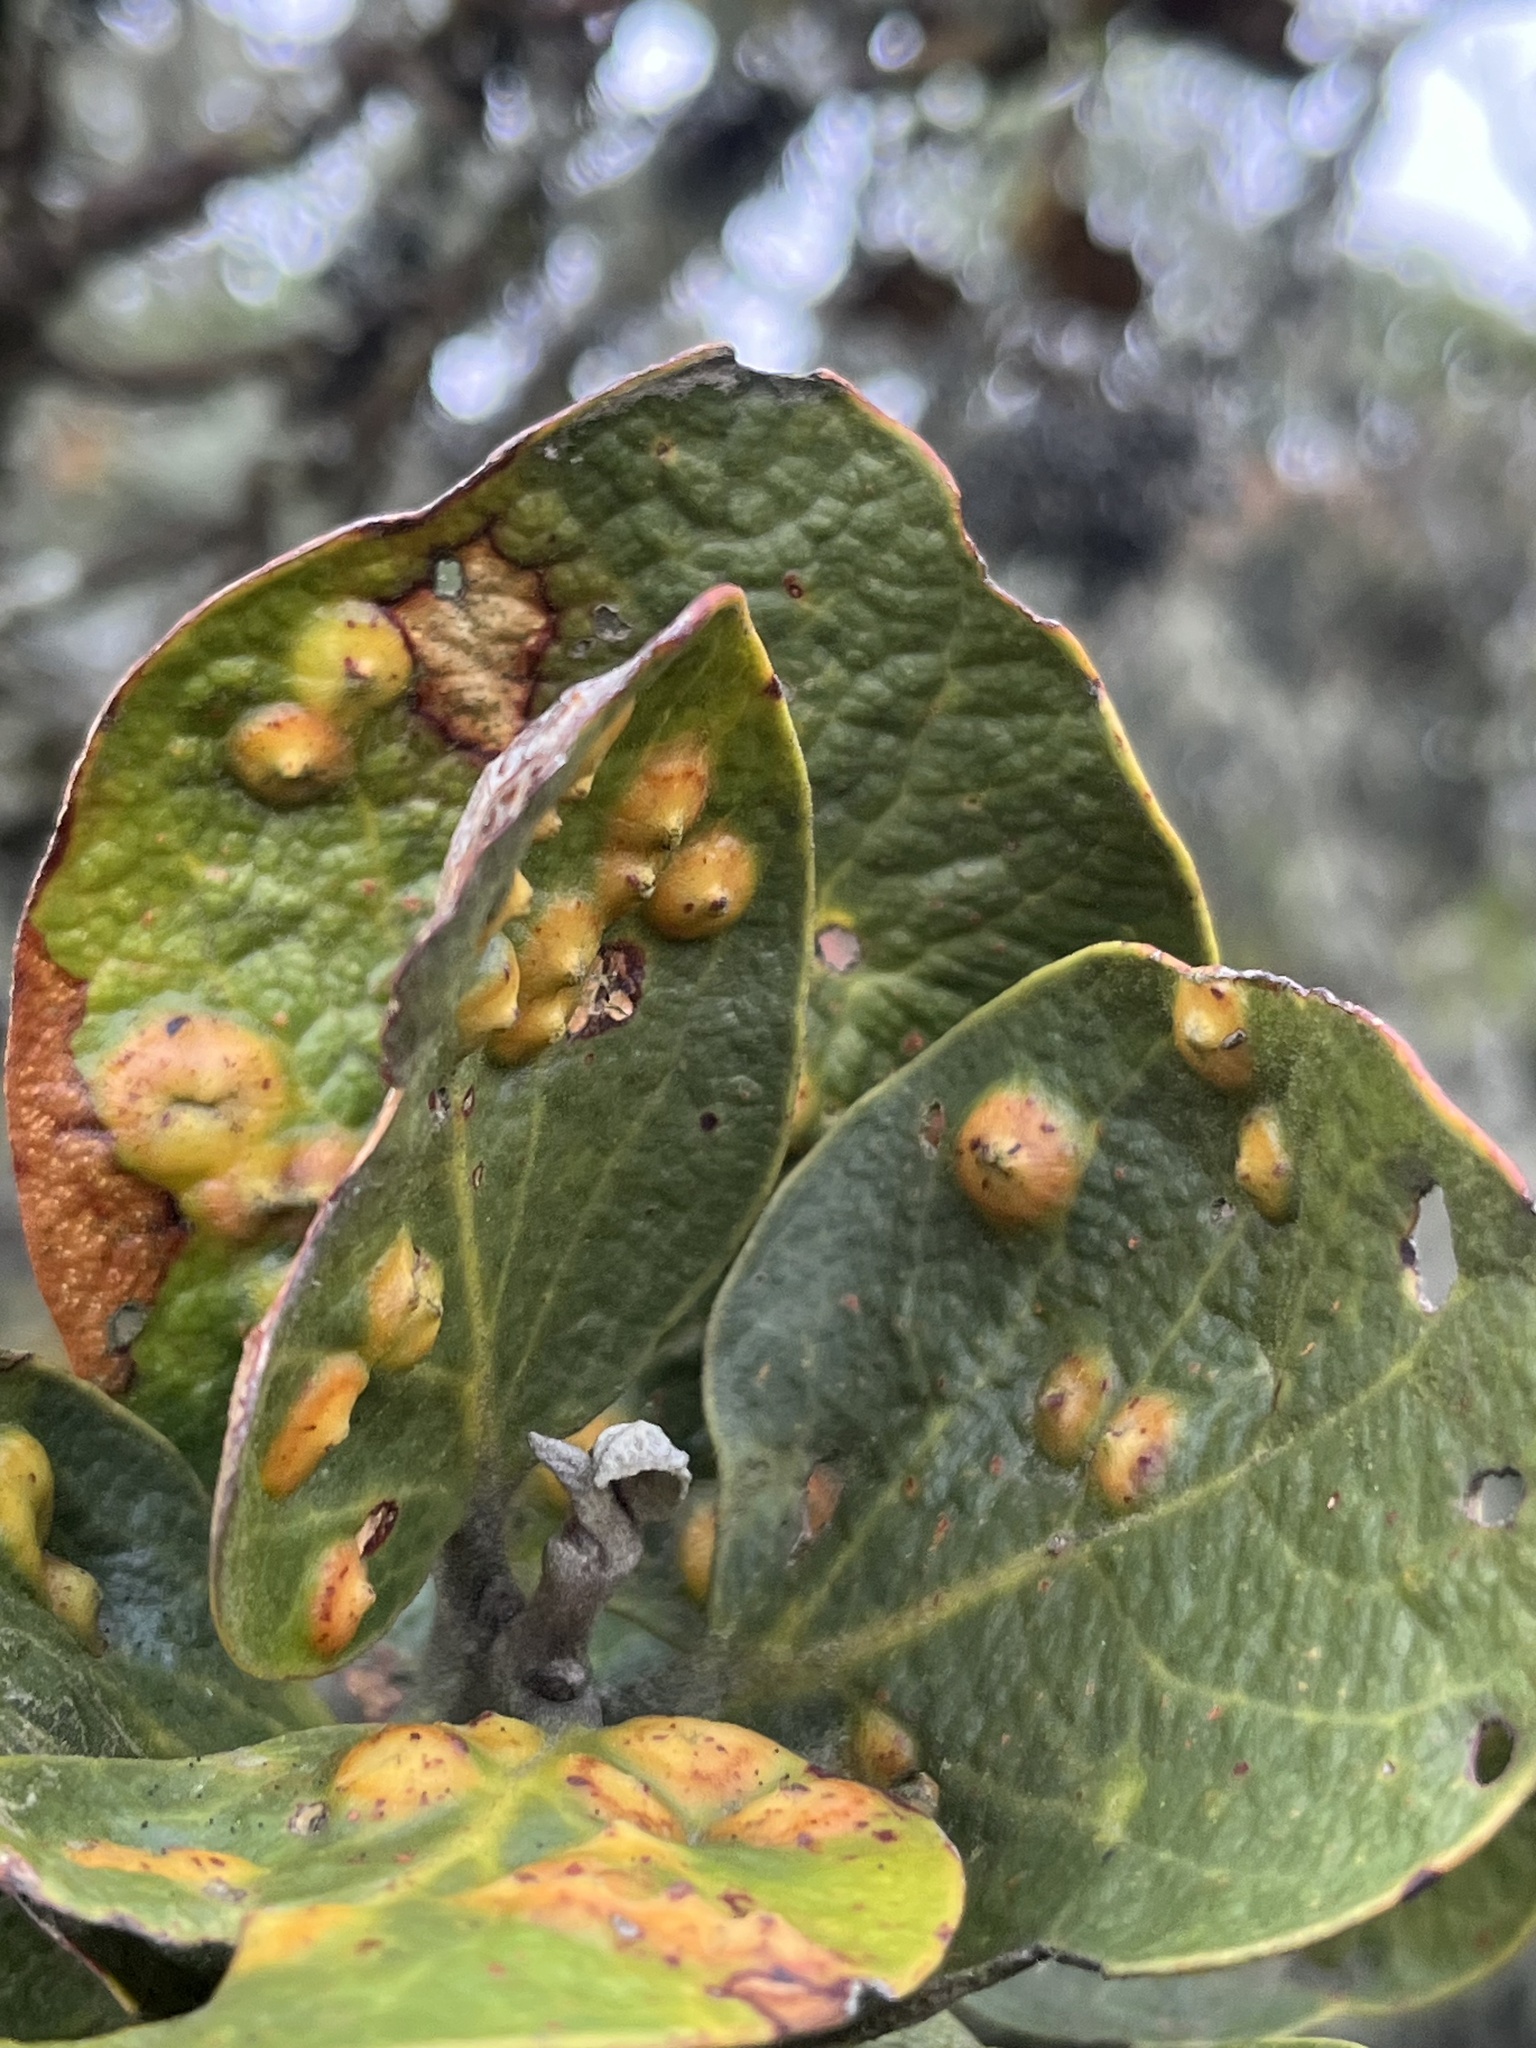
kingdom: Plantae
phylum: Tracheophyta
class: Magnoliopsida
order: Laurales
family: Lauraceae
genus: Persea
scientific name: Persea ferruginea
